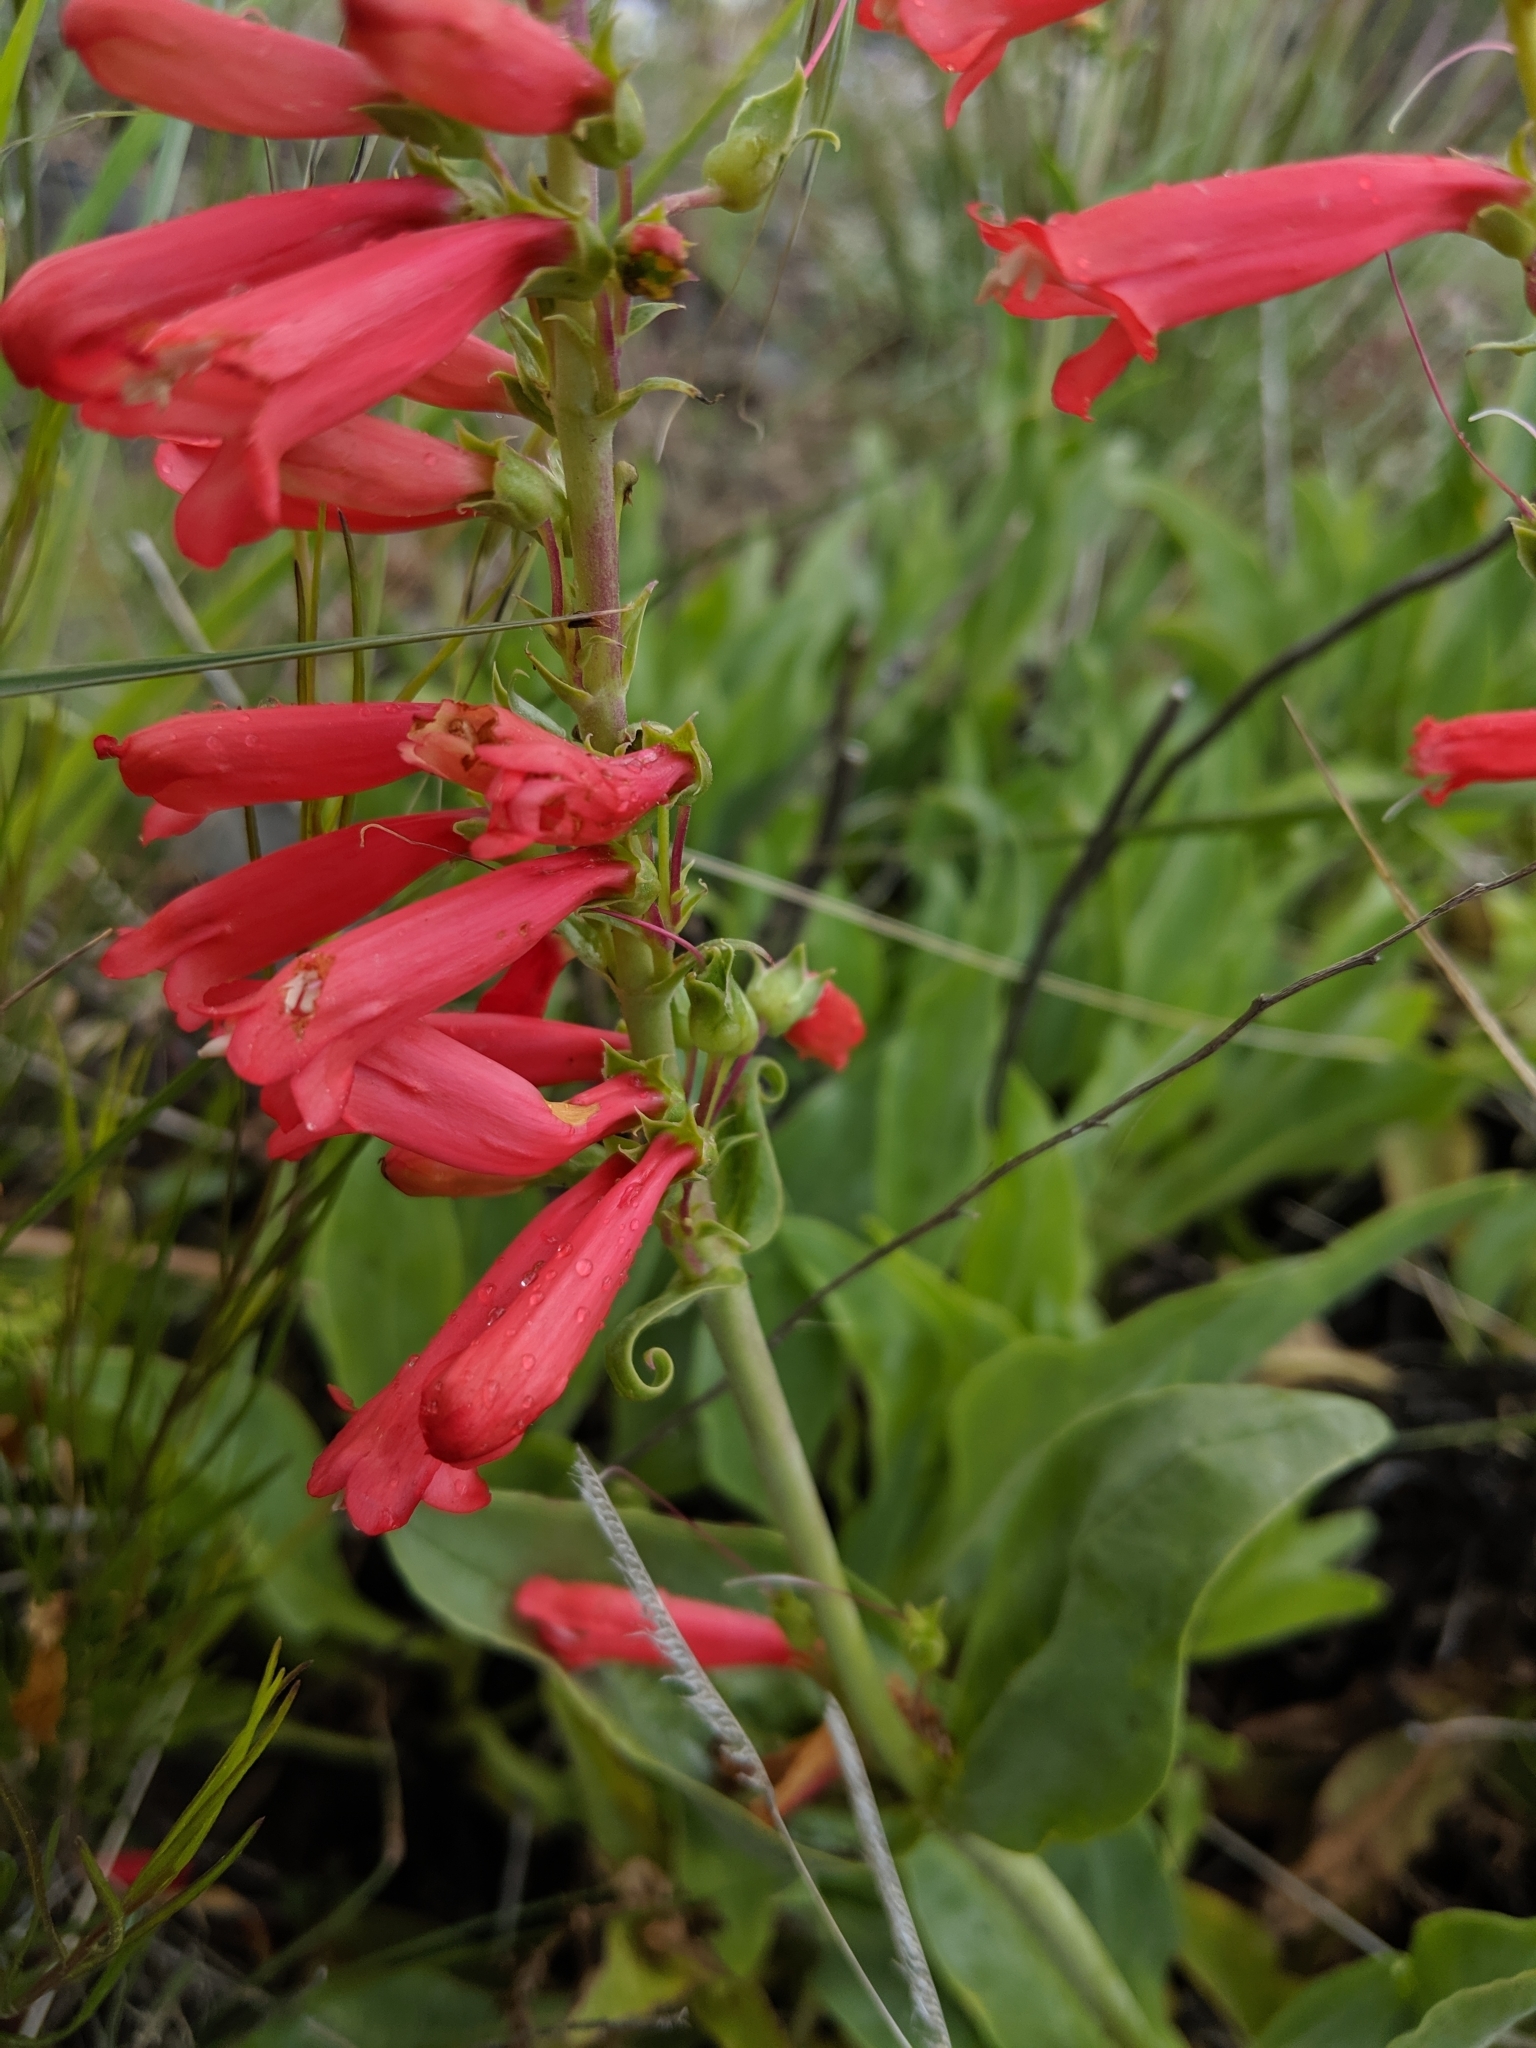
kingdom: Plantae
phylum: Tracheophyta
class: Magnoliopsida
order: Lamiales
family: Plantaginaceae
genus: Penstemon
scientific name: Penstemon eatonii
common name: Eaton's penstemon
